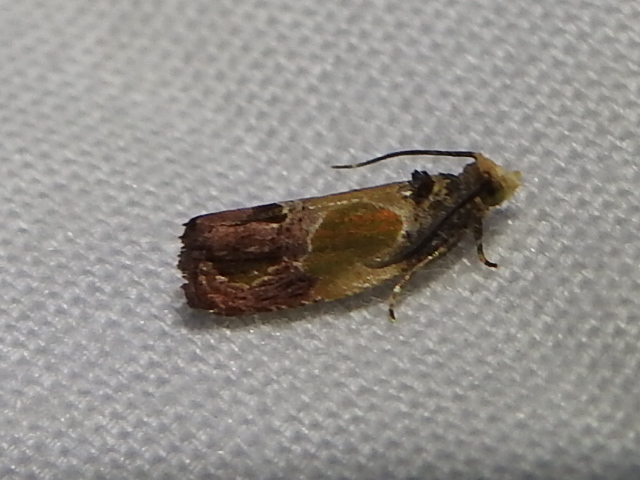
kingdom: Animalia
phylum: Arthropoda
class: Insecta
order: Lepidoptera
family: Tortricidae
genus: Eumarozia
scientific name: Eumarozia malachitana
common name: Sculptured moth
